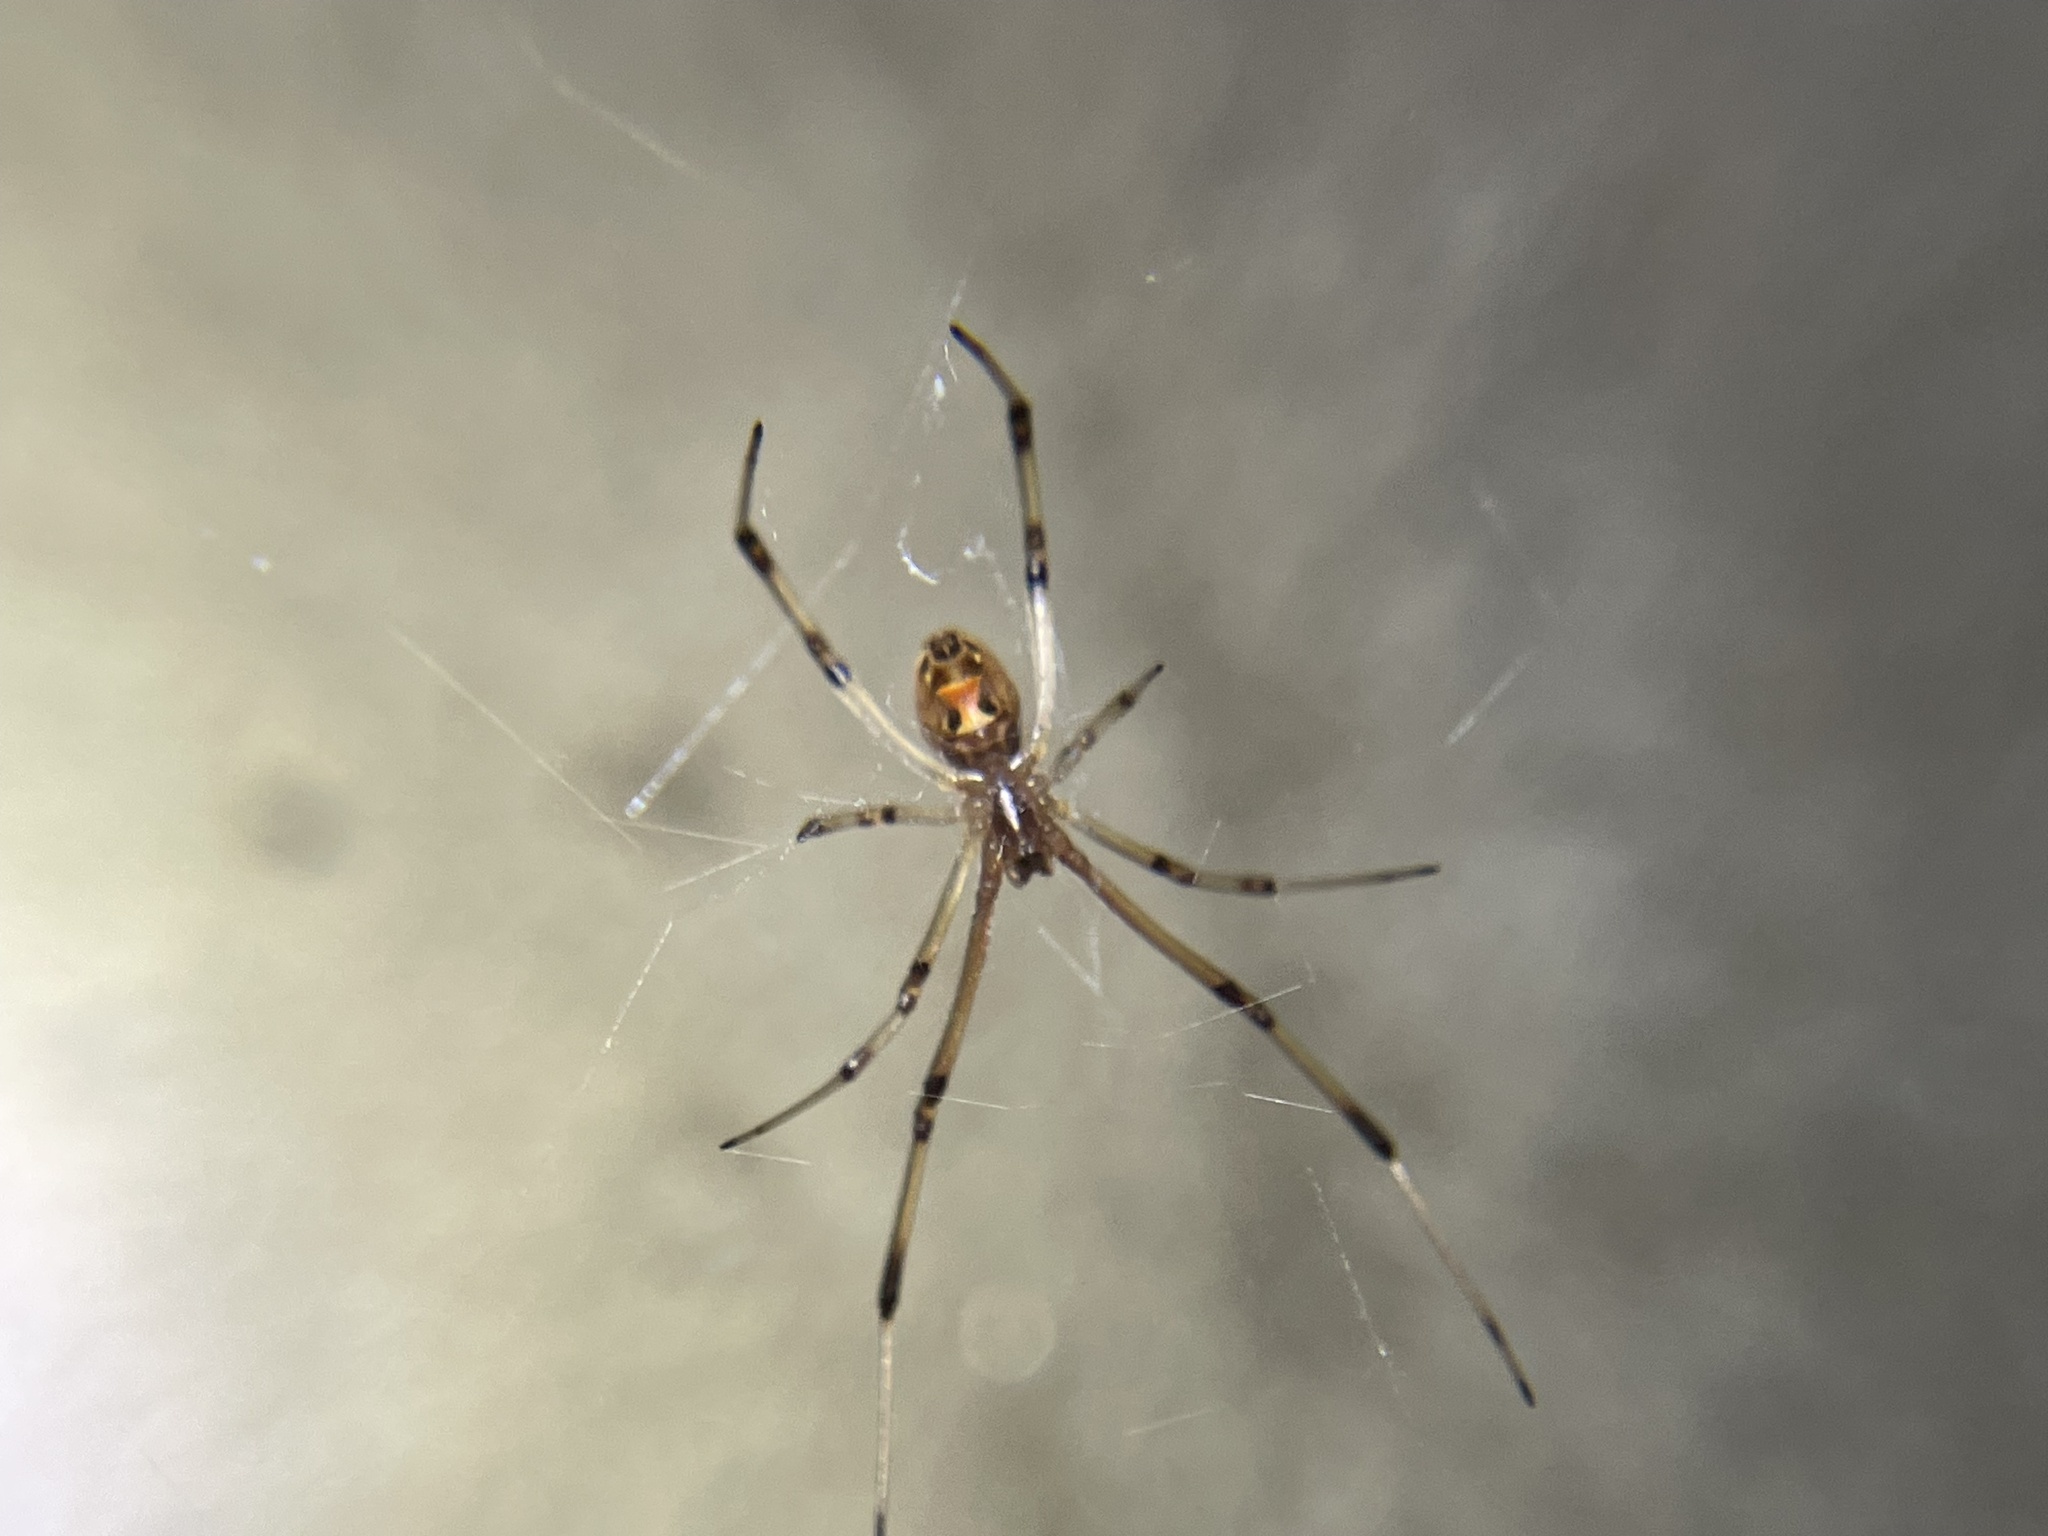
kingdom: Animalia
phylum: Arthropoda
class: Arachnida
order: Araneae
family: Theridiidae
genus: Latrodectus
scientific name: Latrodectus geometricus
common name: Brown widow spider
